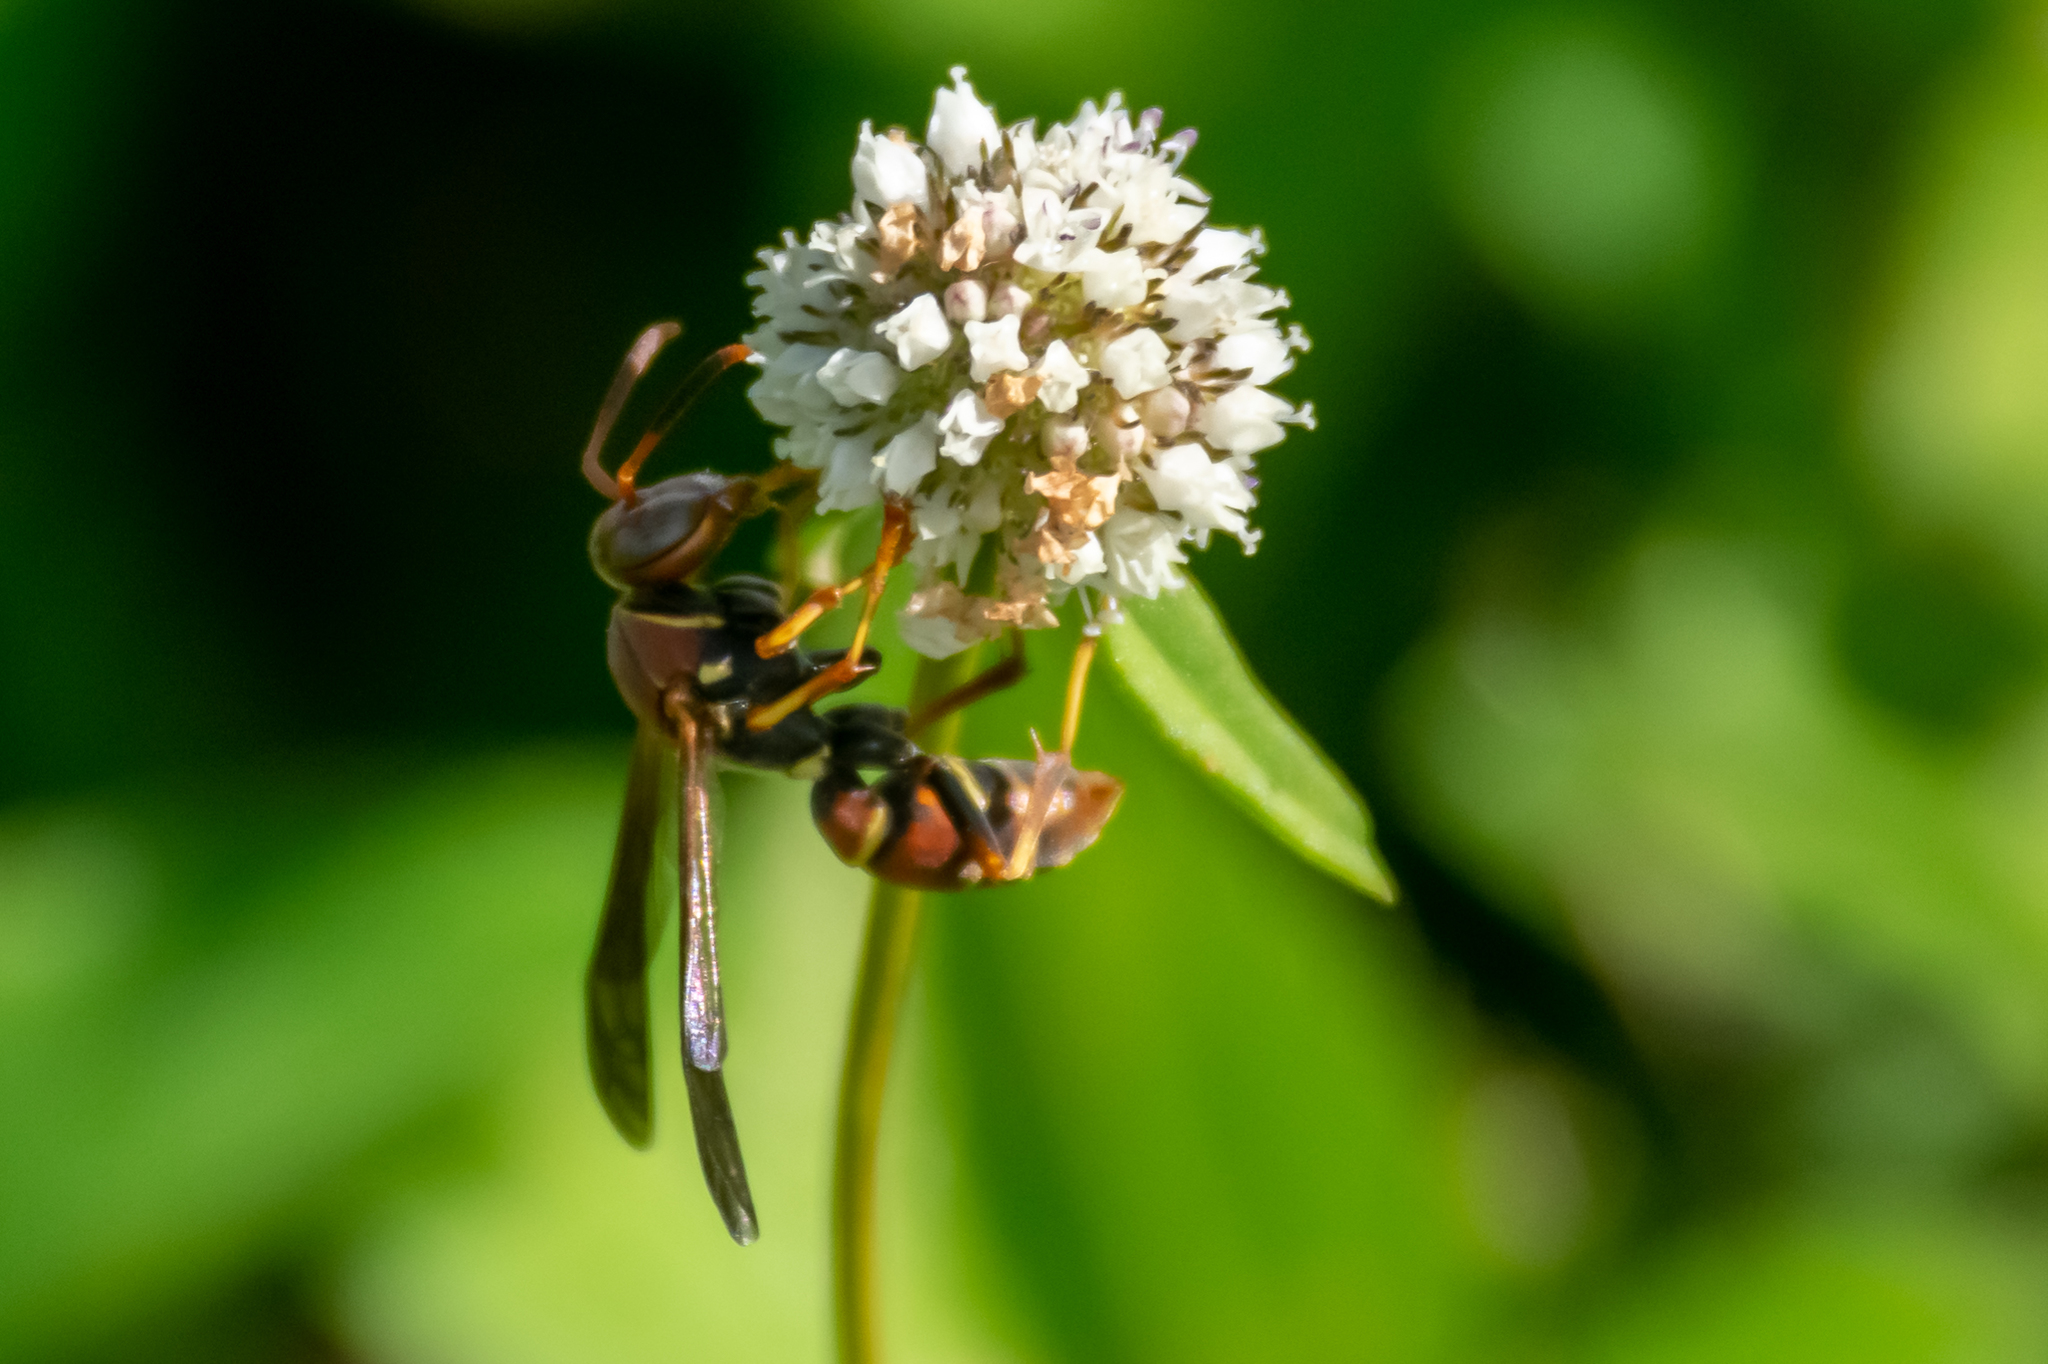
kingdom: Animalia
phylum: Arthropoda
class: Insecta
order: Hymenoptera
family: Eumenidae
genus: Polistes
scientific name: Polistes dorsalis
